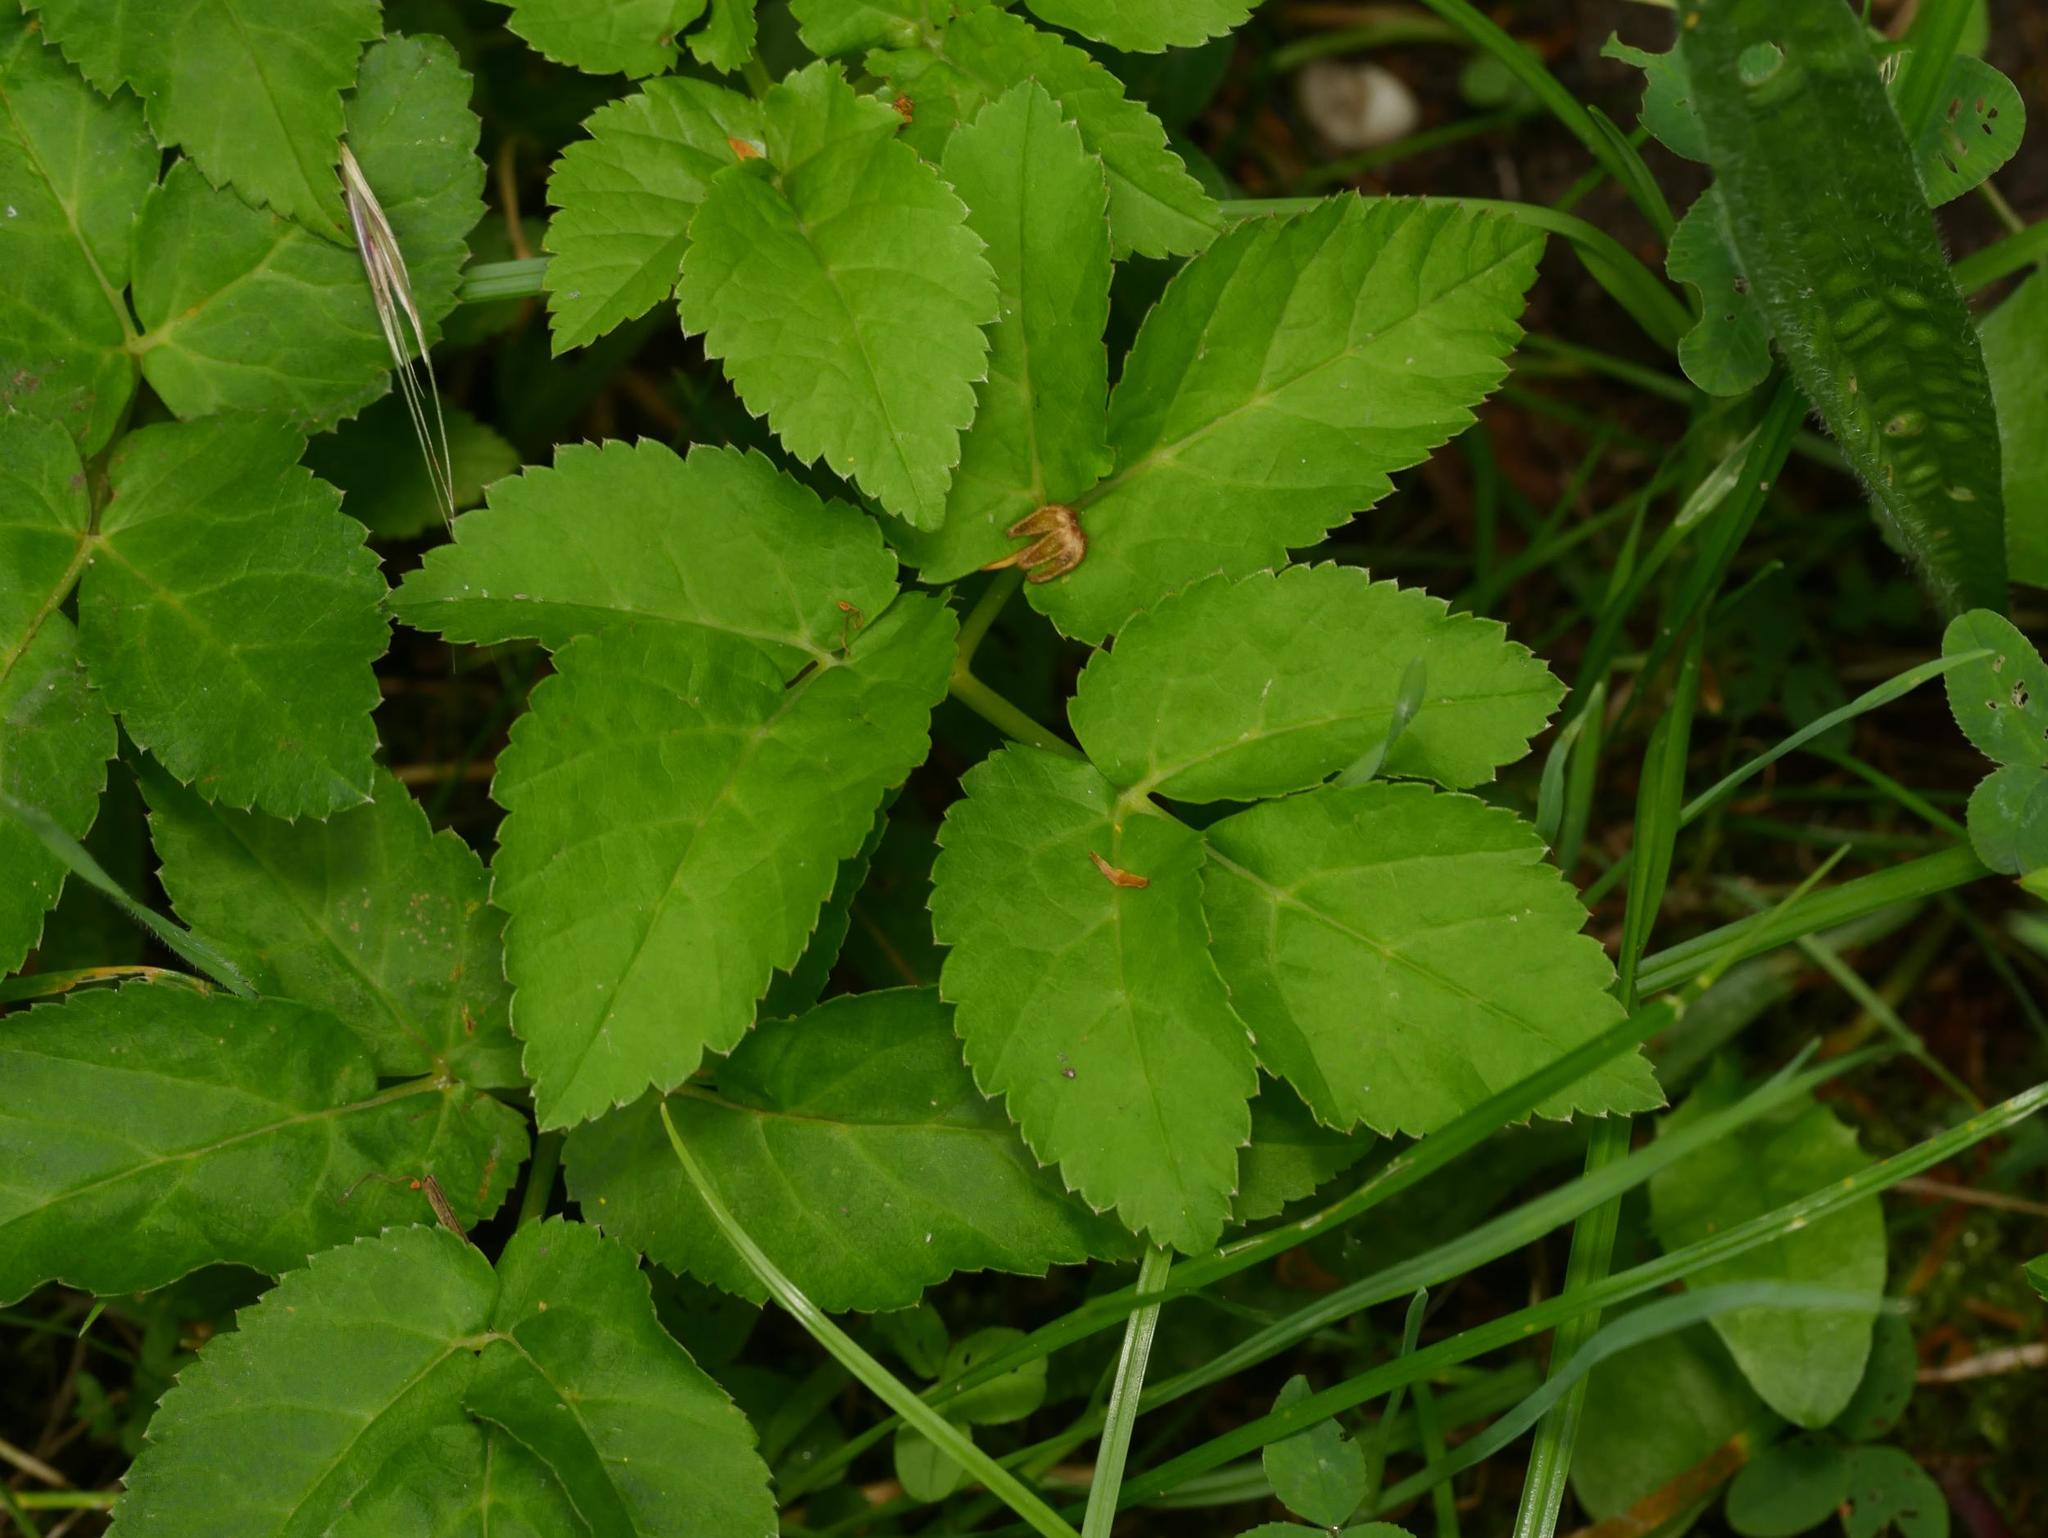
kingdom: Plantae
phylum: Tracheophyta
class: Magnoliopsida
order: Apiales
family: Apiaceae
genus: Aegopodium
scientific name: Aegopodium podagraria
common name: Ground-elder
